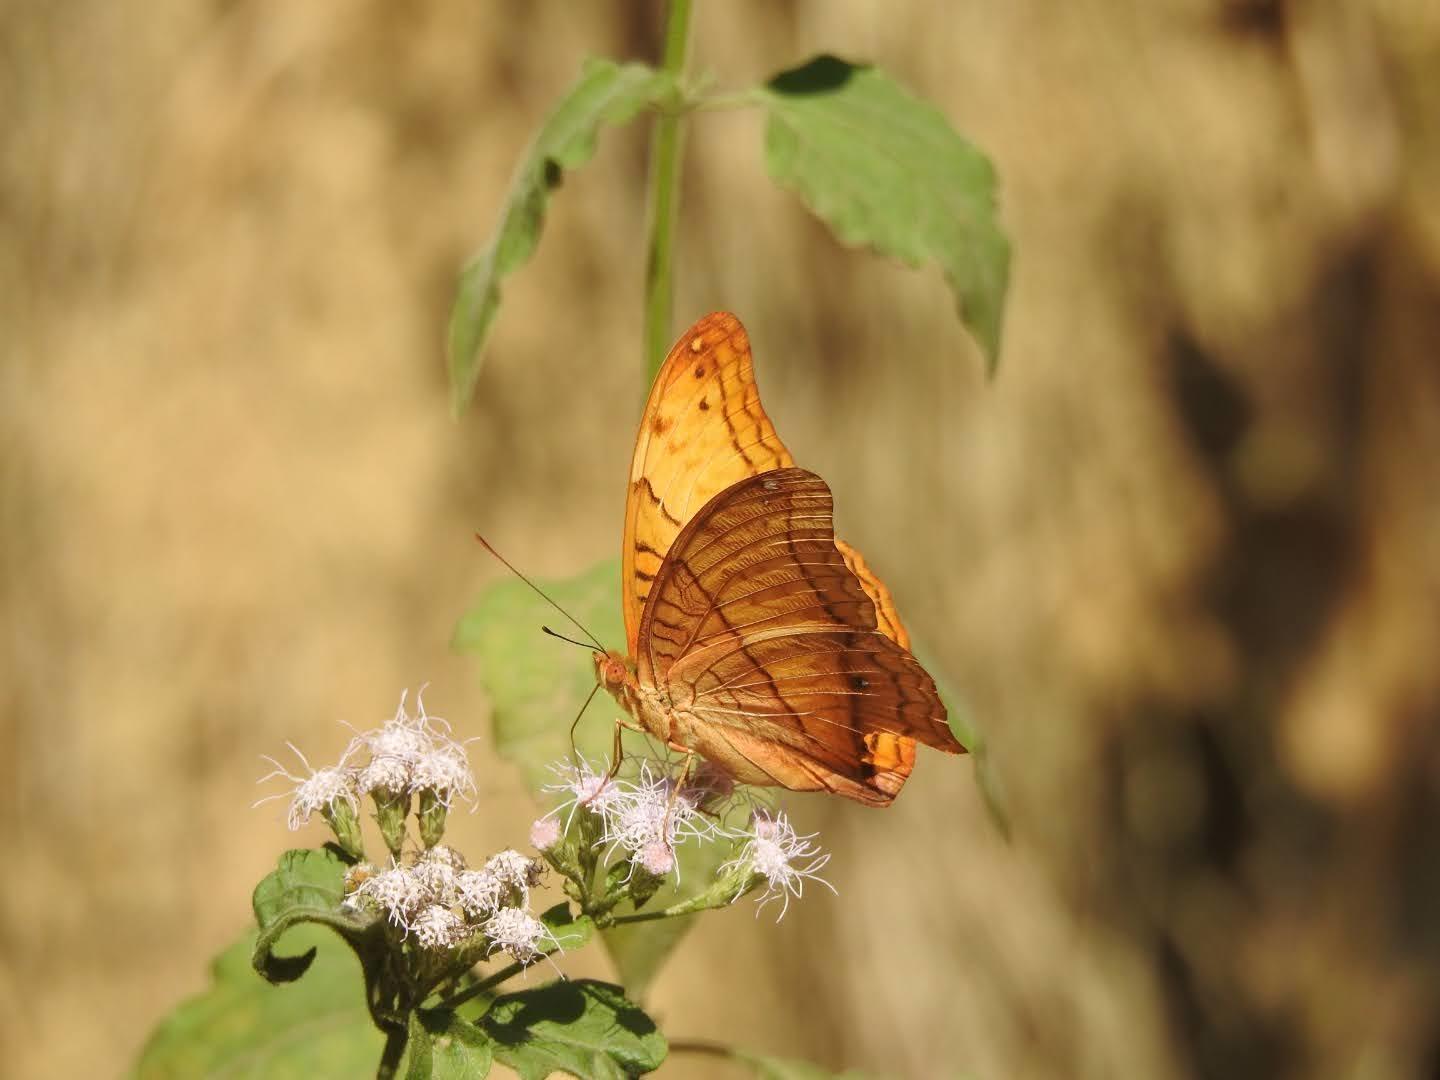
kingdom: Animalia
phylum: Arthropoda
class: Insecta
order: Lepidoptera
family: Nymphalidae
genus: Vindula
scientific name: Vindula erota
